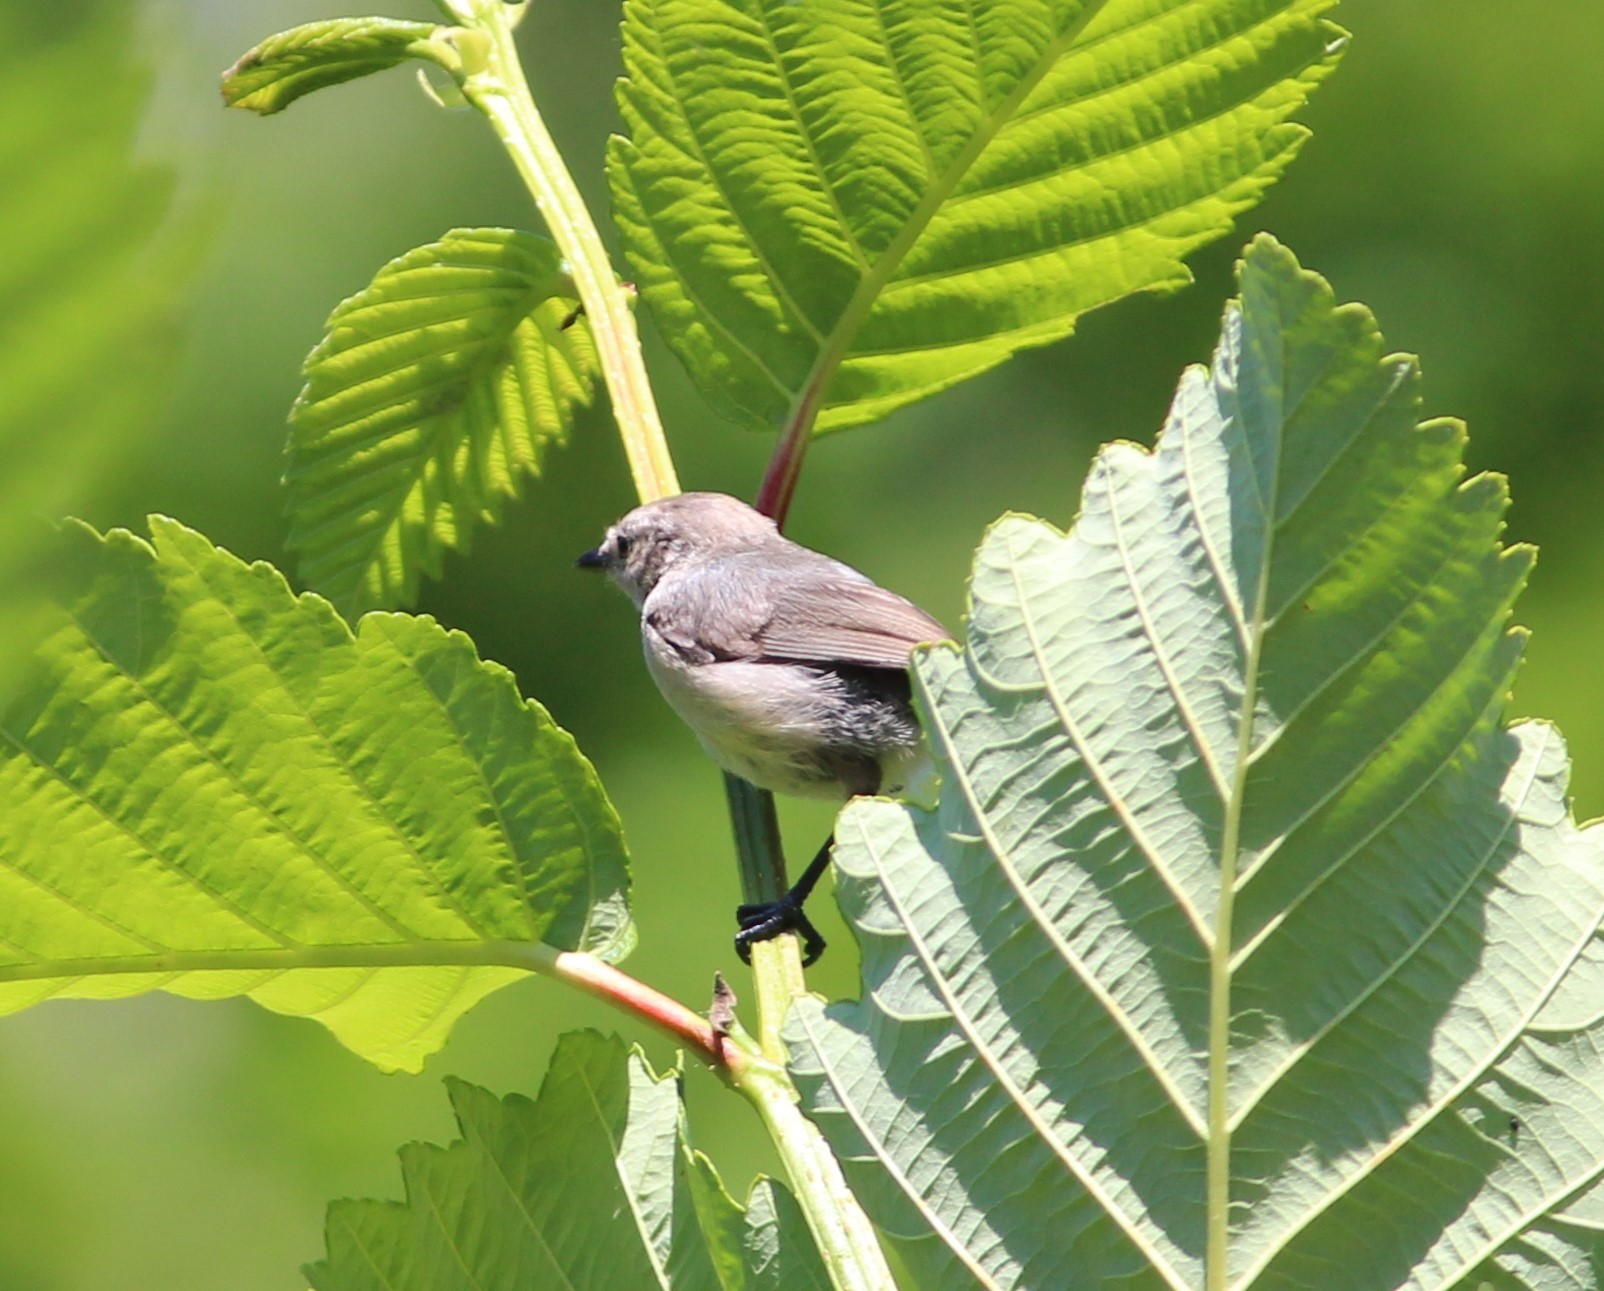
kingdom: Animalia
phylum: Chordata
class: Aves
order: Passeriformes
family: Aegithalidae
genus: Psaltriparus
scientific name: Psaltriparus minimus
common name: American bushtit
